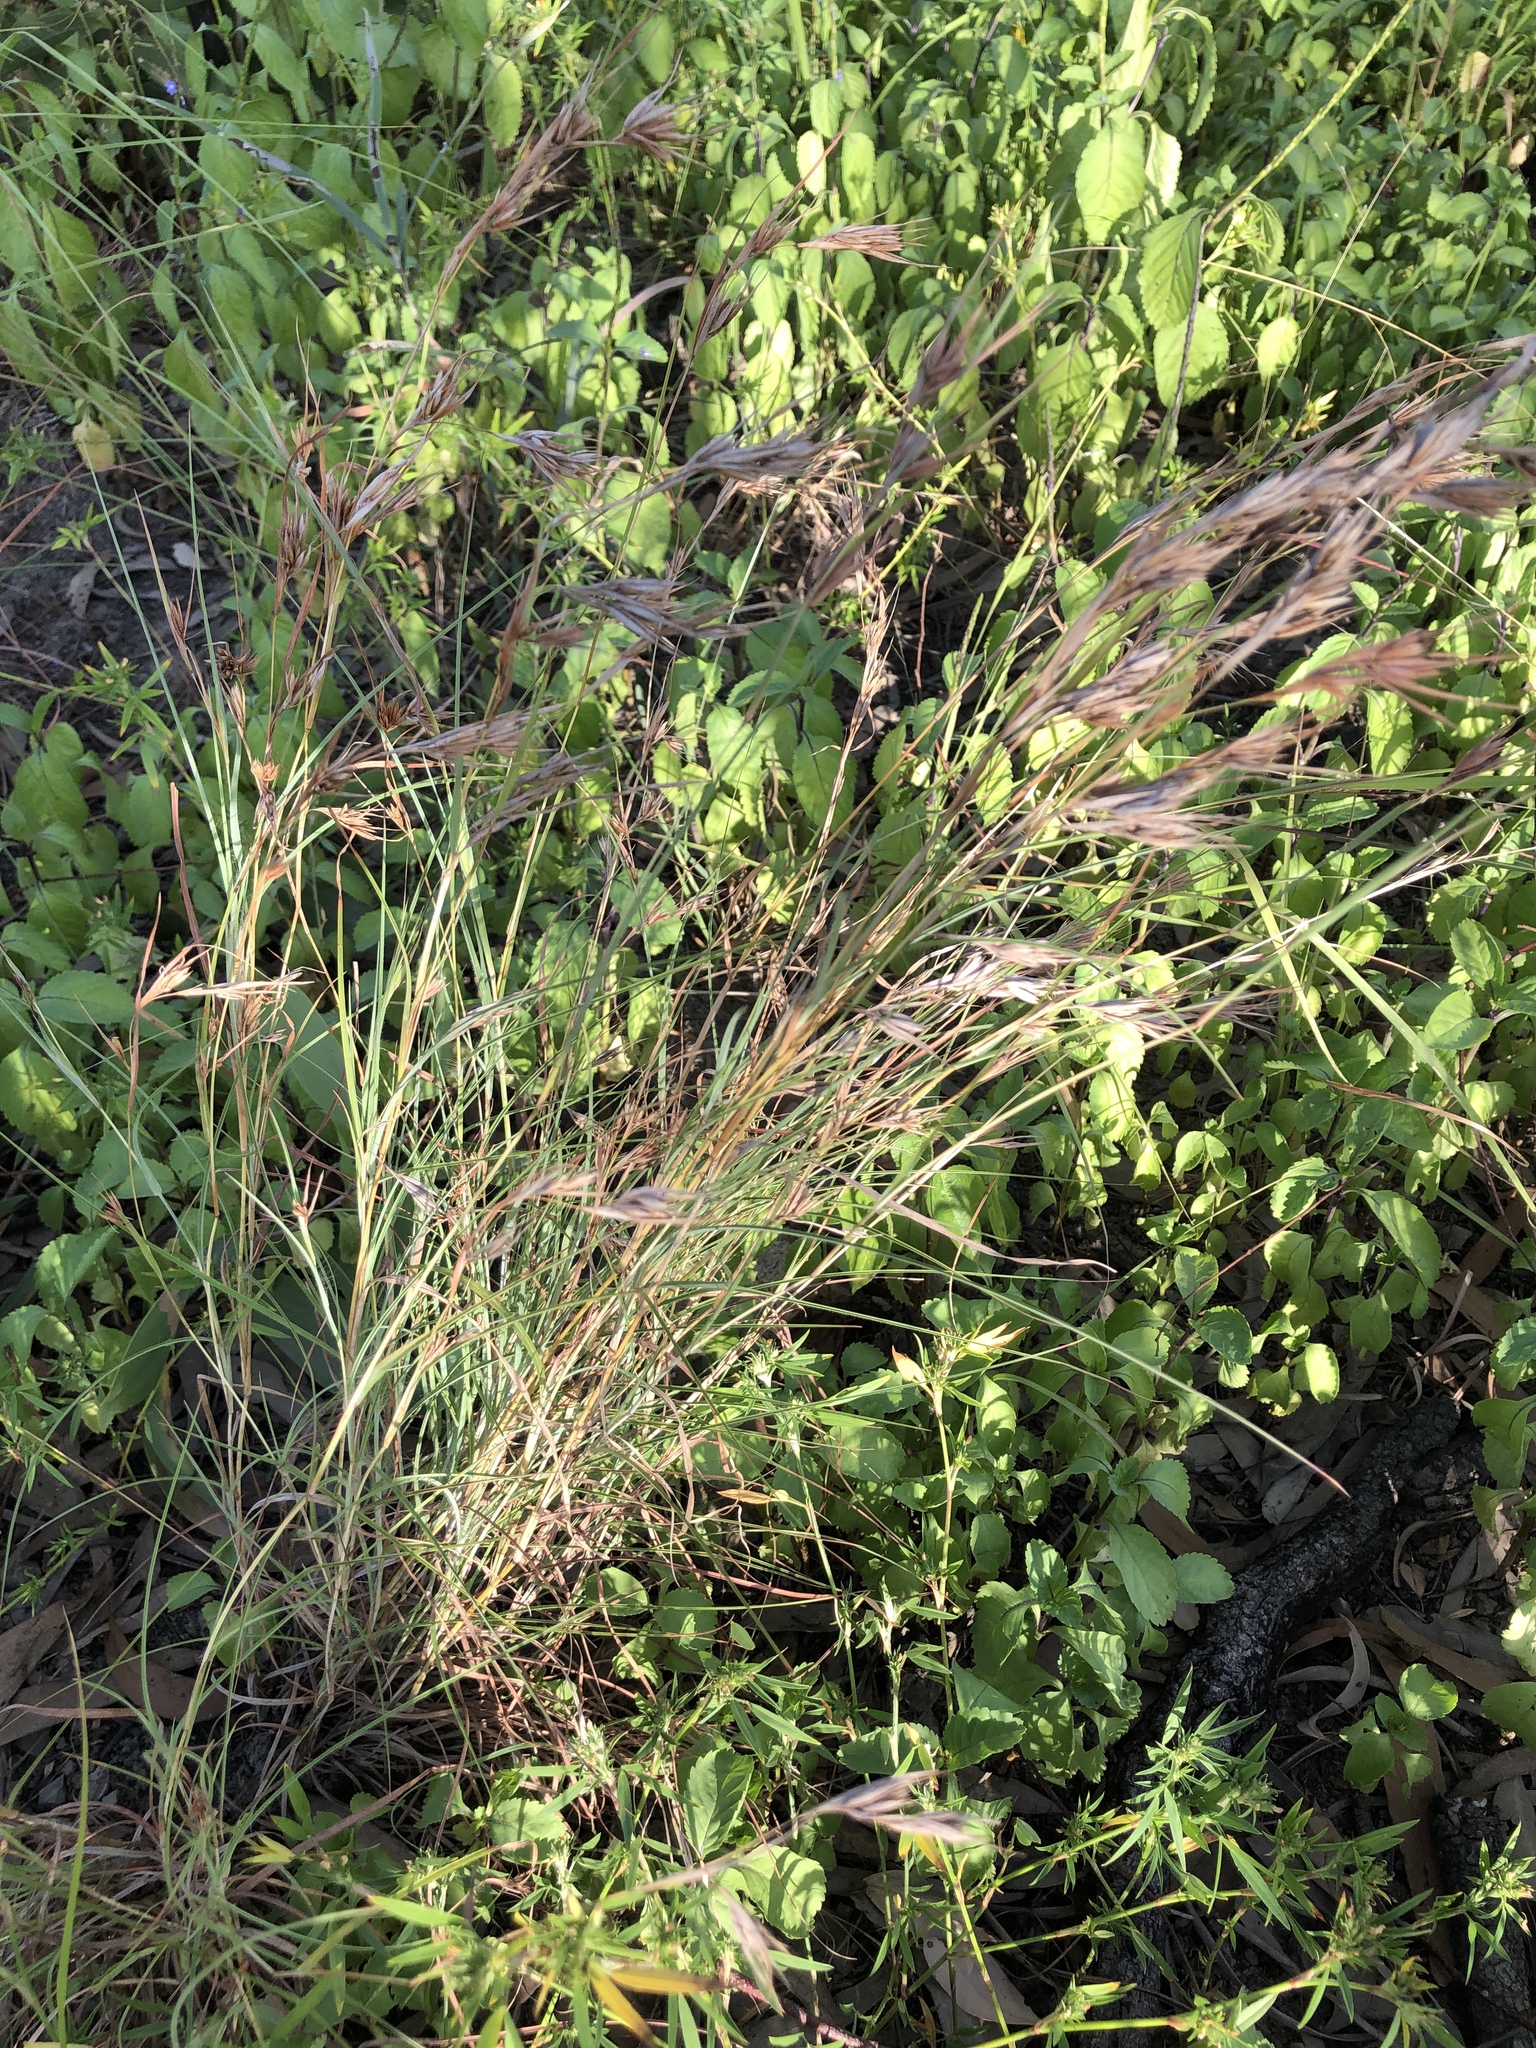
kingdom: Plantae
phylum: Tracheophyta
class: Liliopsida
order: Poales
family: Poaceae
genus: Themeda
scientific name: Themeda triandra
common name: Kangaroo grass
